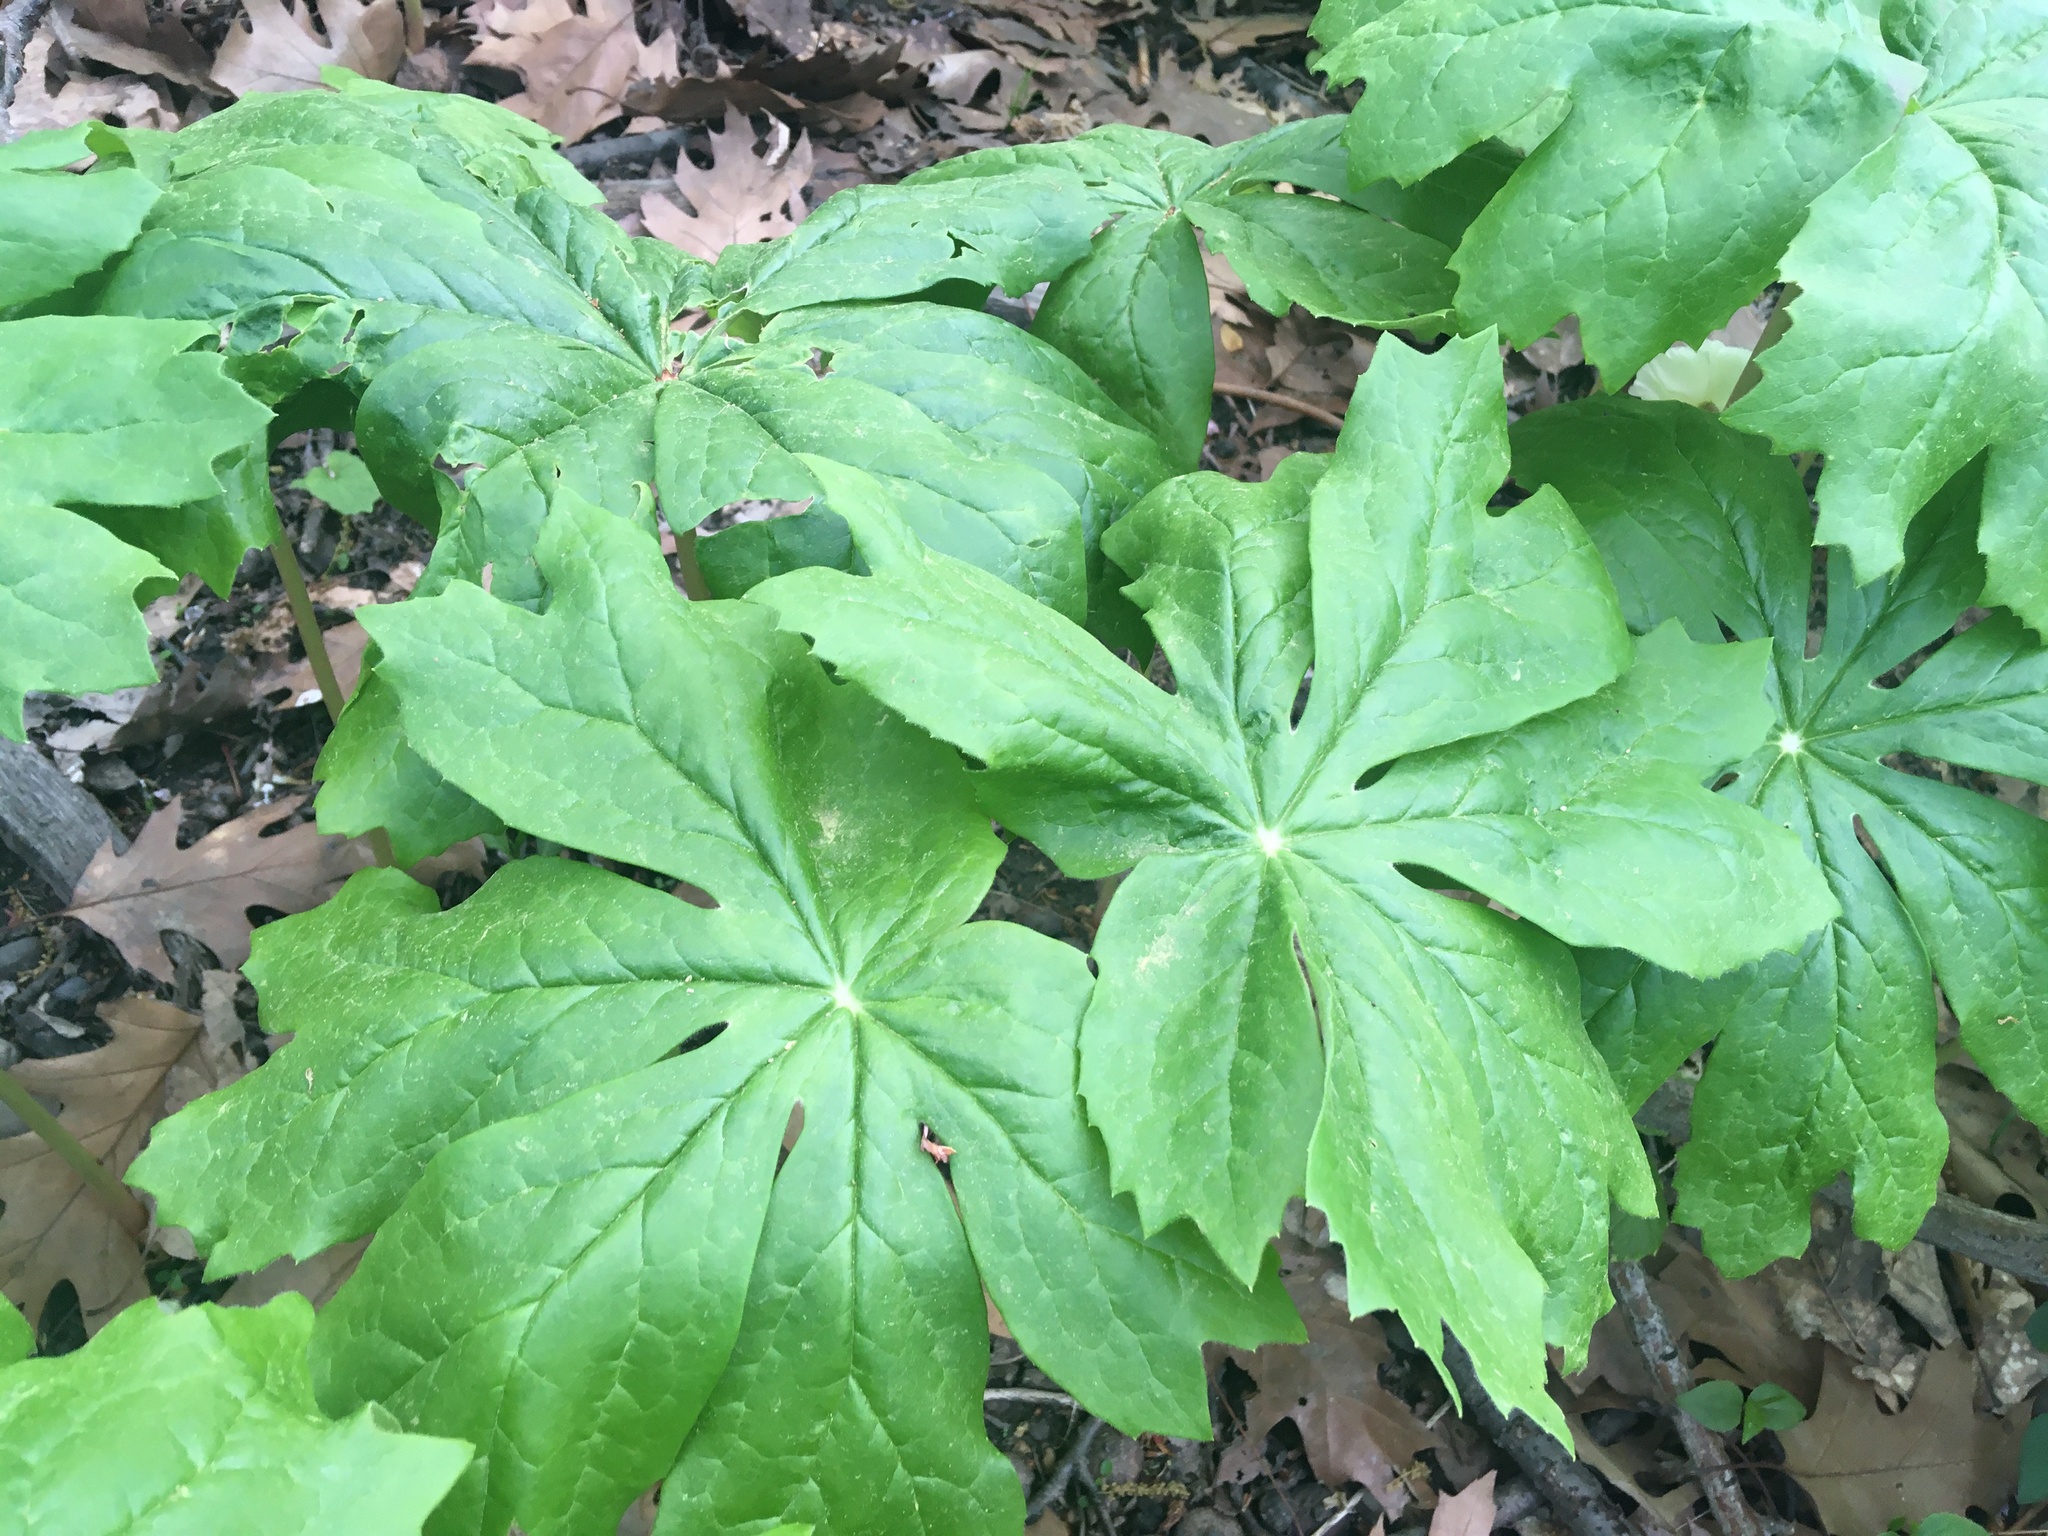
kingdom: Plantae
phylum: Tracheophyta
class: Magnoliopsida
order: Ranunculales
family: Berberidaceae
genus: Podophyllum
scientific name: Podophyllum peltatum
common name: Wild mandrake
